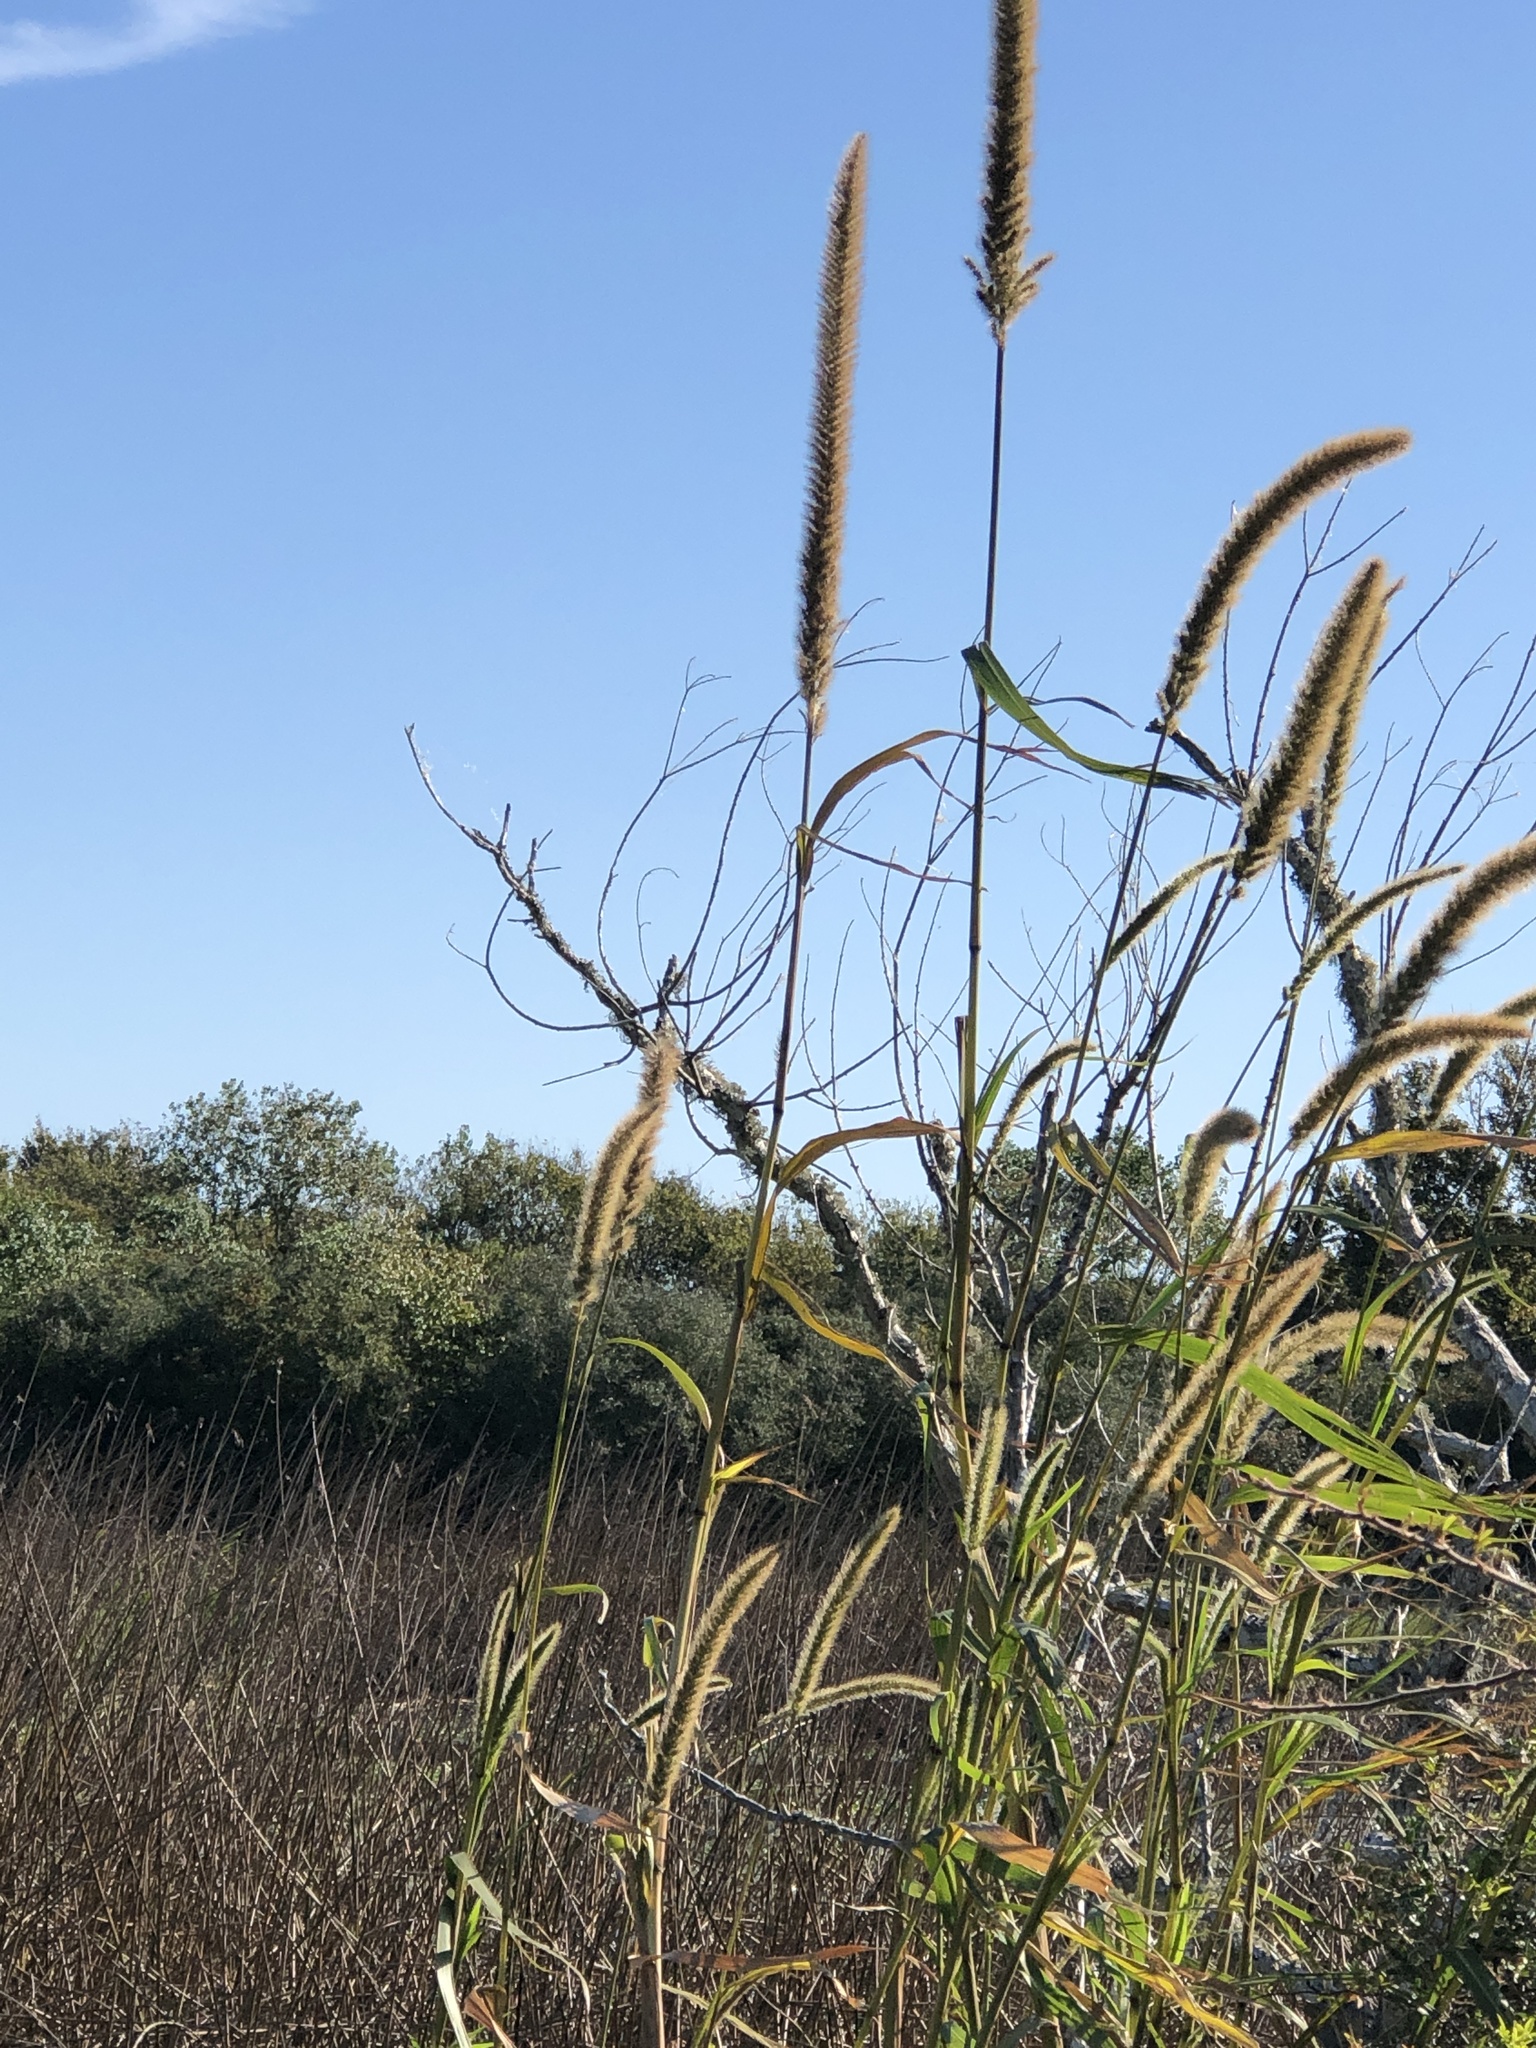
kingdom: Plantae
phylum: Tracheophyta
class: Liliopsida
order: Poales
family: Poaceae
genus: Setaria
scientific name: Setaria magna
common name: Giant bristle grass
